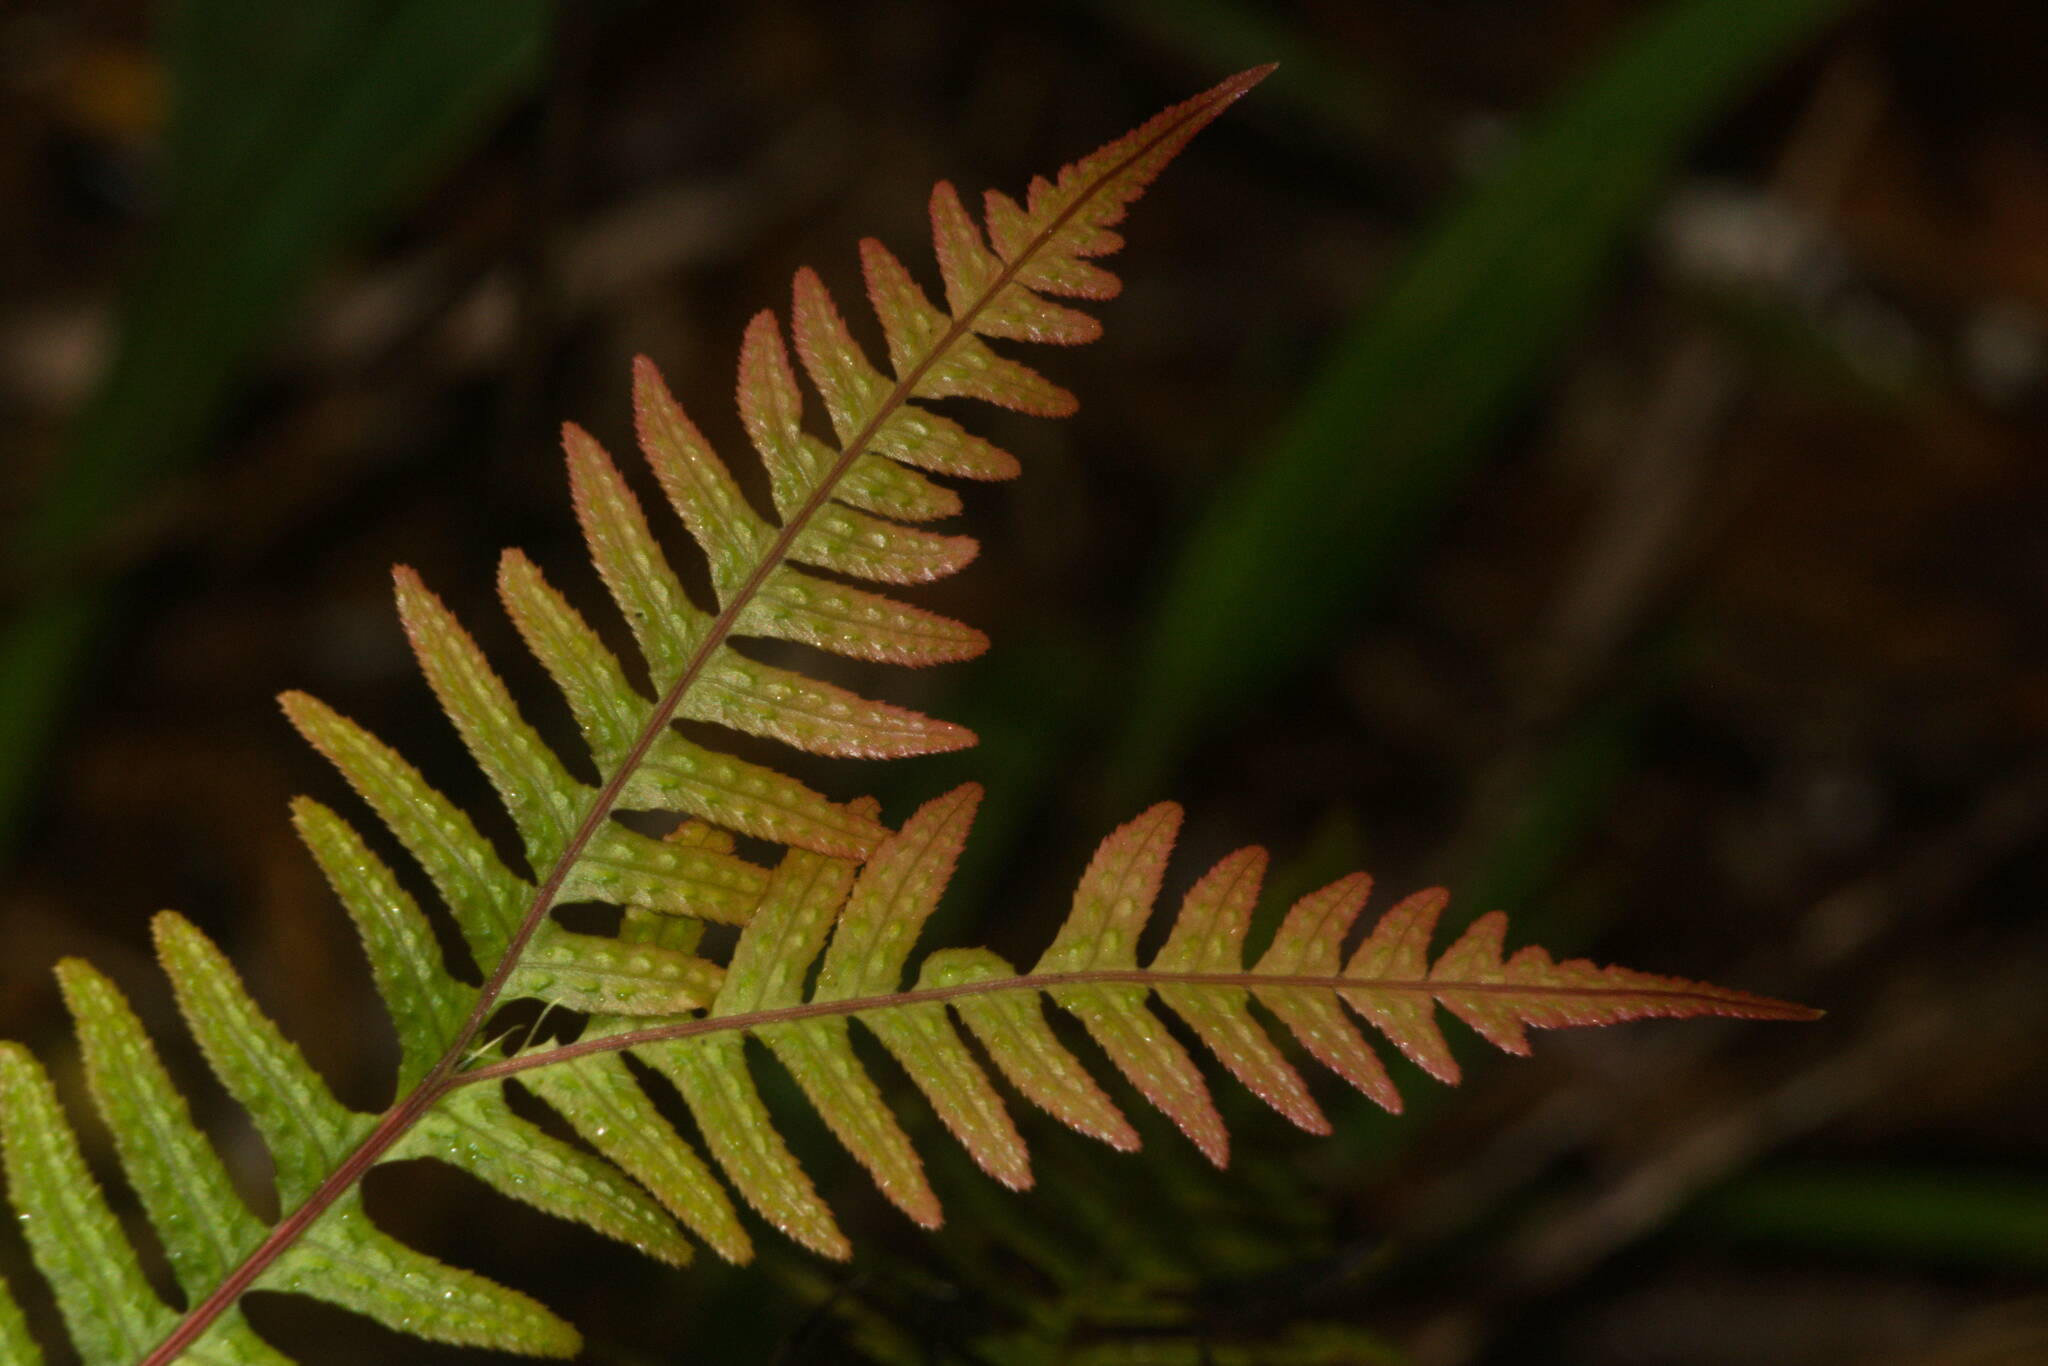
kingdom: Plantae
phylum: Tracheophyta
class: Polypodiopsida
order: Polypodiales
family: Blechnaceae
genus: Doodia
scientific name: Doodia kunthiana
